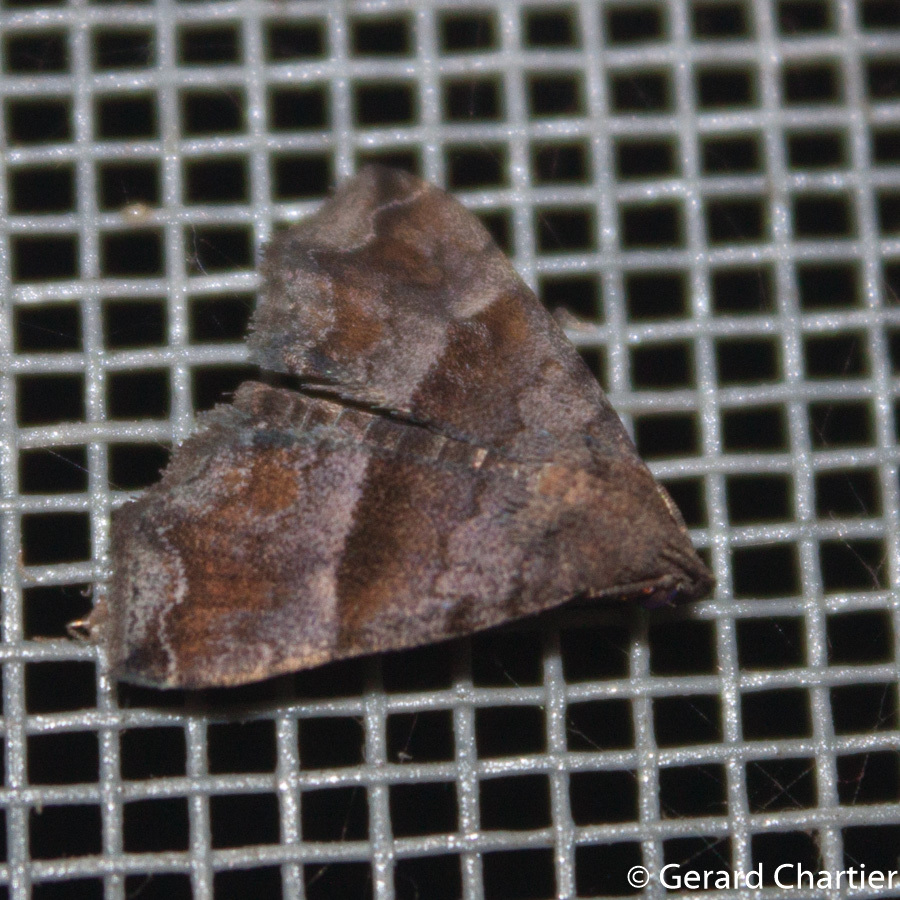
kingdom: Animalia
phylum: Arthropoda
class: Insecta
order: Lepidoptera
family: Erebidae
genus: Polypogon
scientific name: Polypogon Hipoepa fractalis
